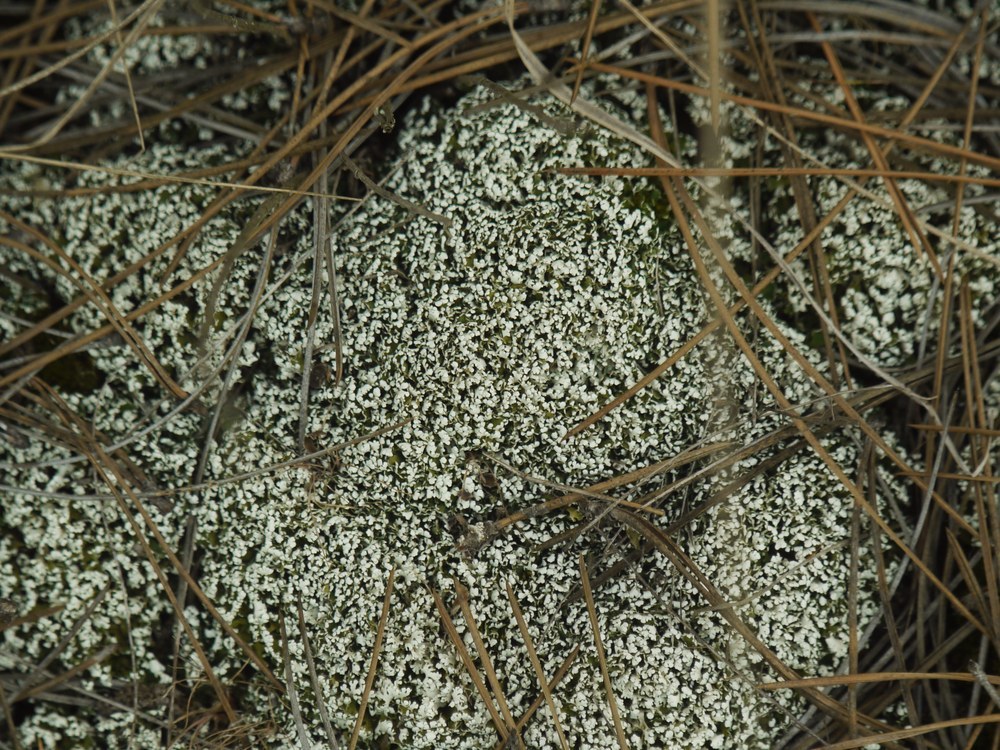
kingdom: Fungi
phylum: Ascomycota
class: Lecanoromycetes
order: Lecanorales
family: Cladoniaceae
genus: Cladonia
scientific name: Cladonia foliacea
